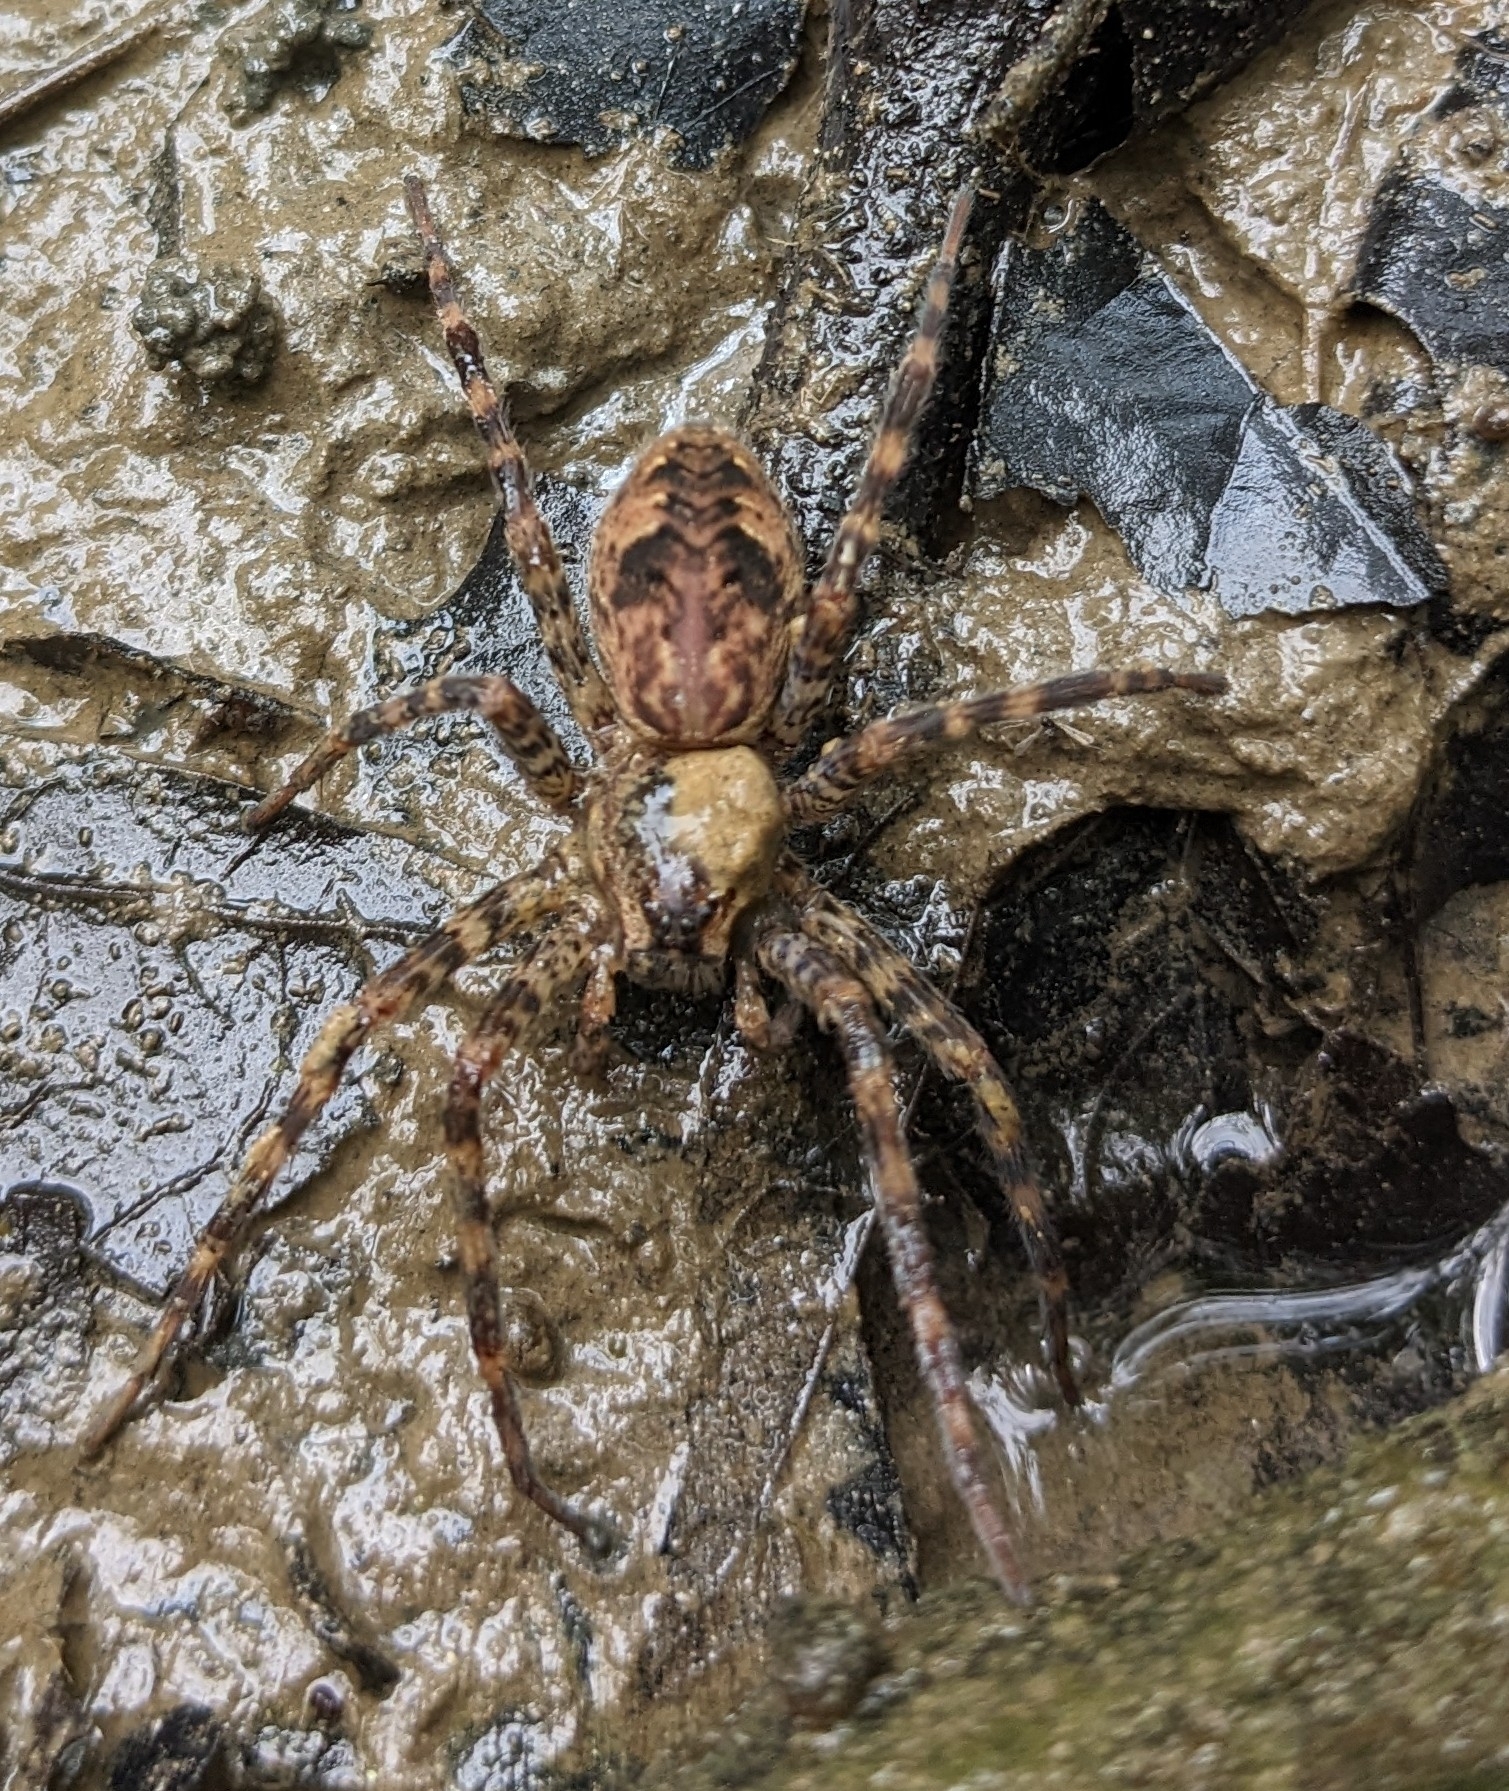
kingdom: Animalia
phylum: Arthropoda
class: Arachnida
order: Araneae
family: Pisauridae
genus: Dolomedes
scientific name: Dolomedes tenebrosus
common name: Dark fishing spider
